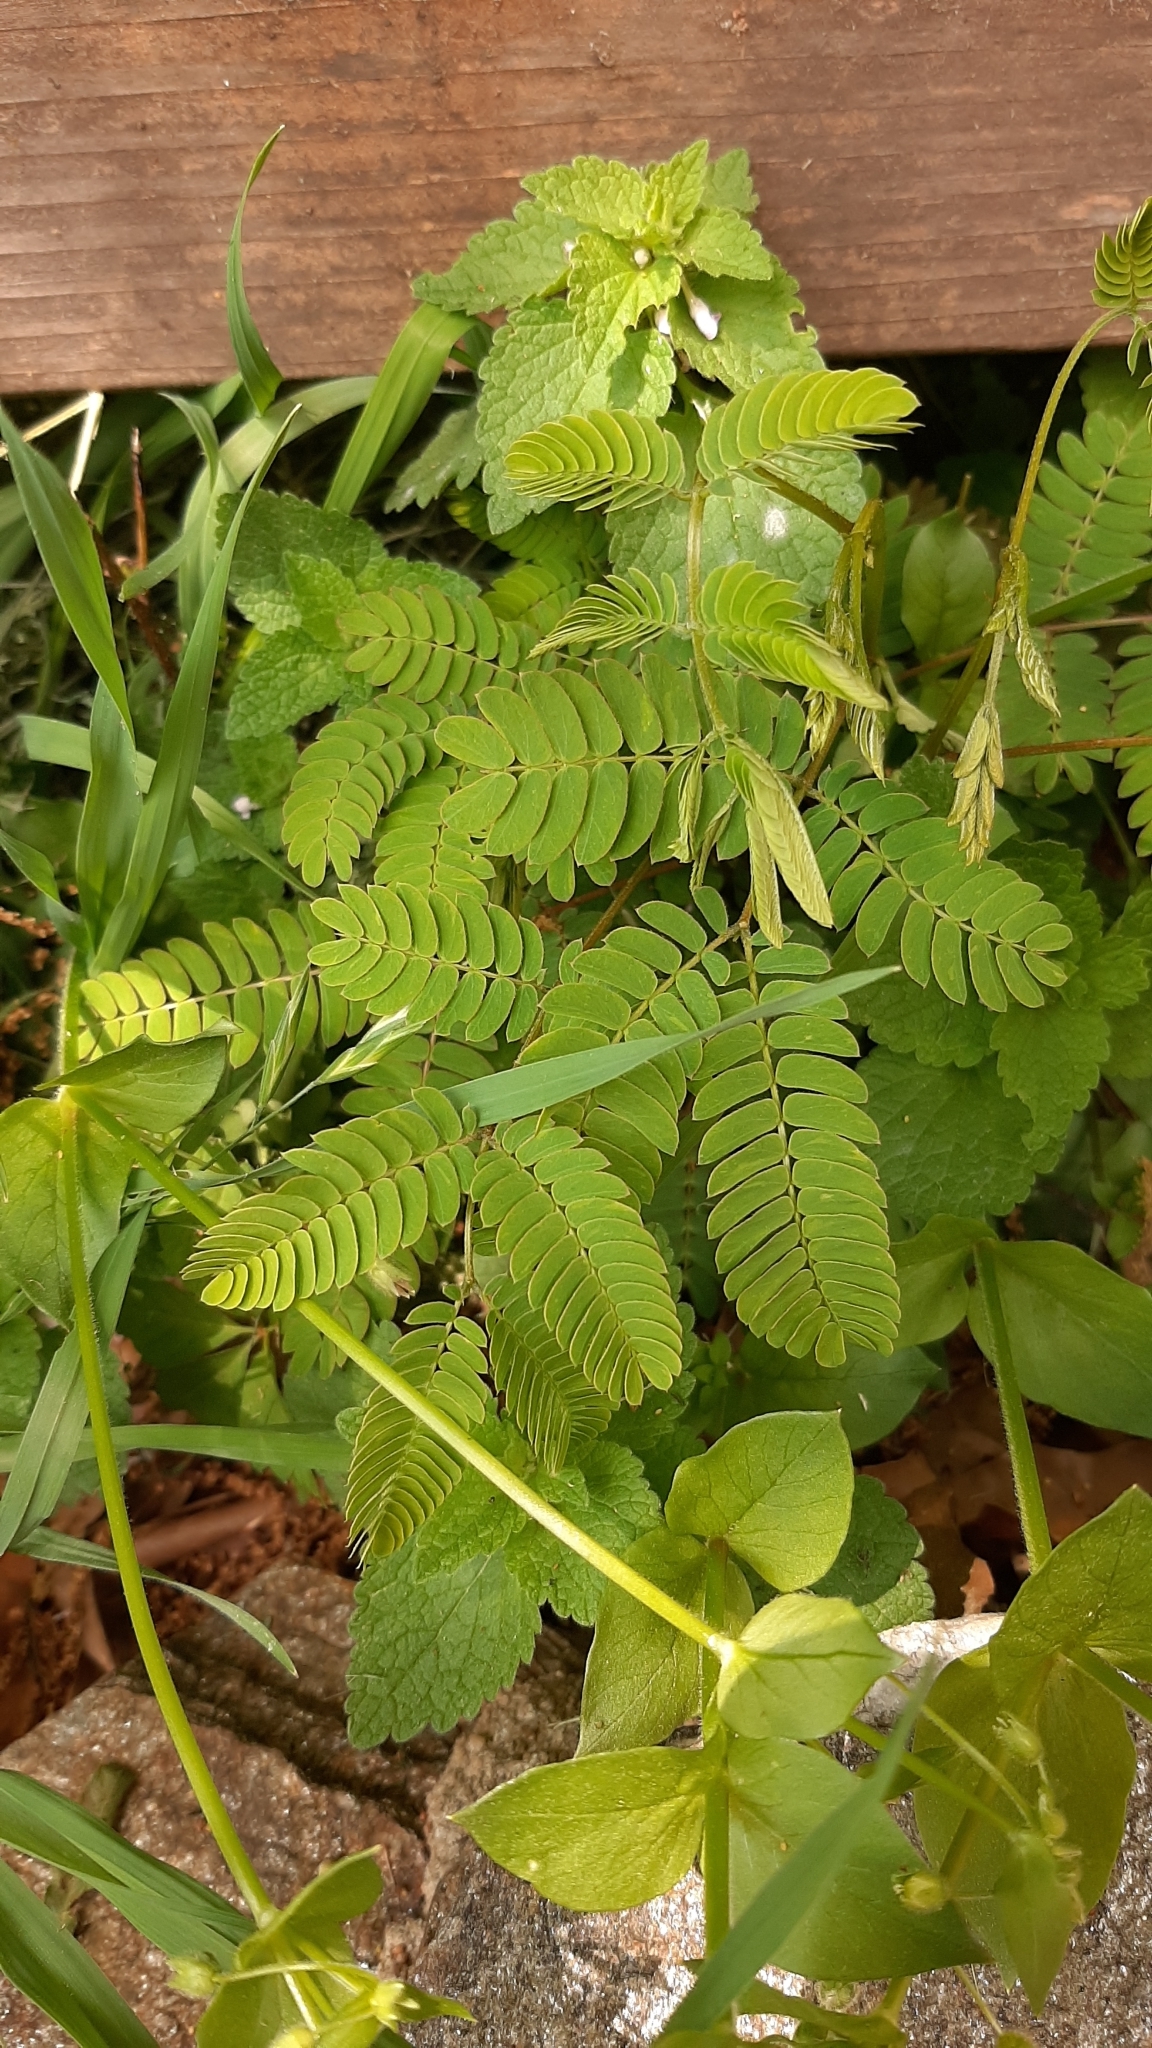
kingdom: Plantae
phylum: Tracheophyta
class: Magnoliopsida
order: Fabales
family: Fabaceae
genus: Albizia
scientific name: Albizia julibrissin
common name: Silktree
